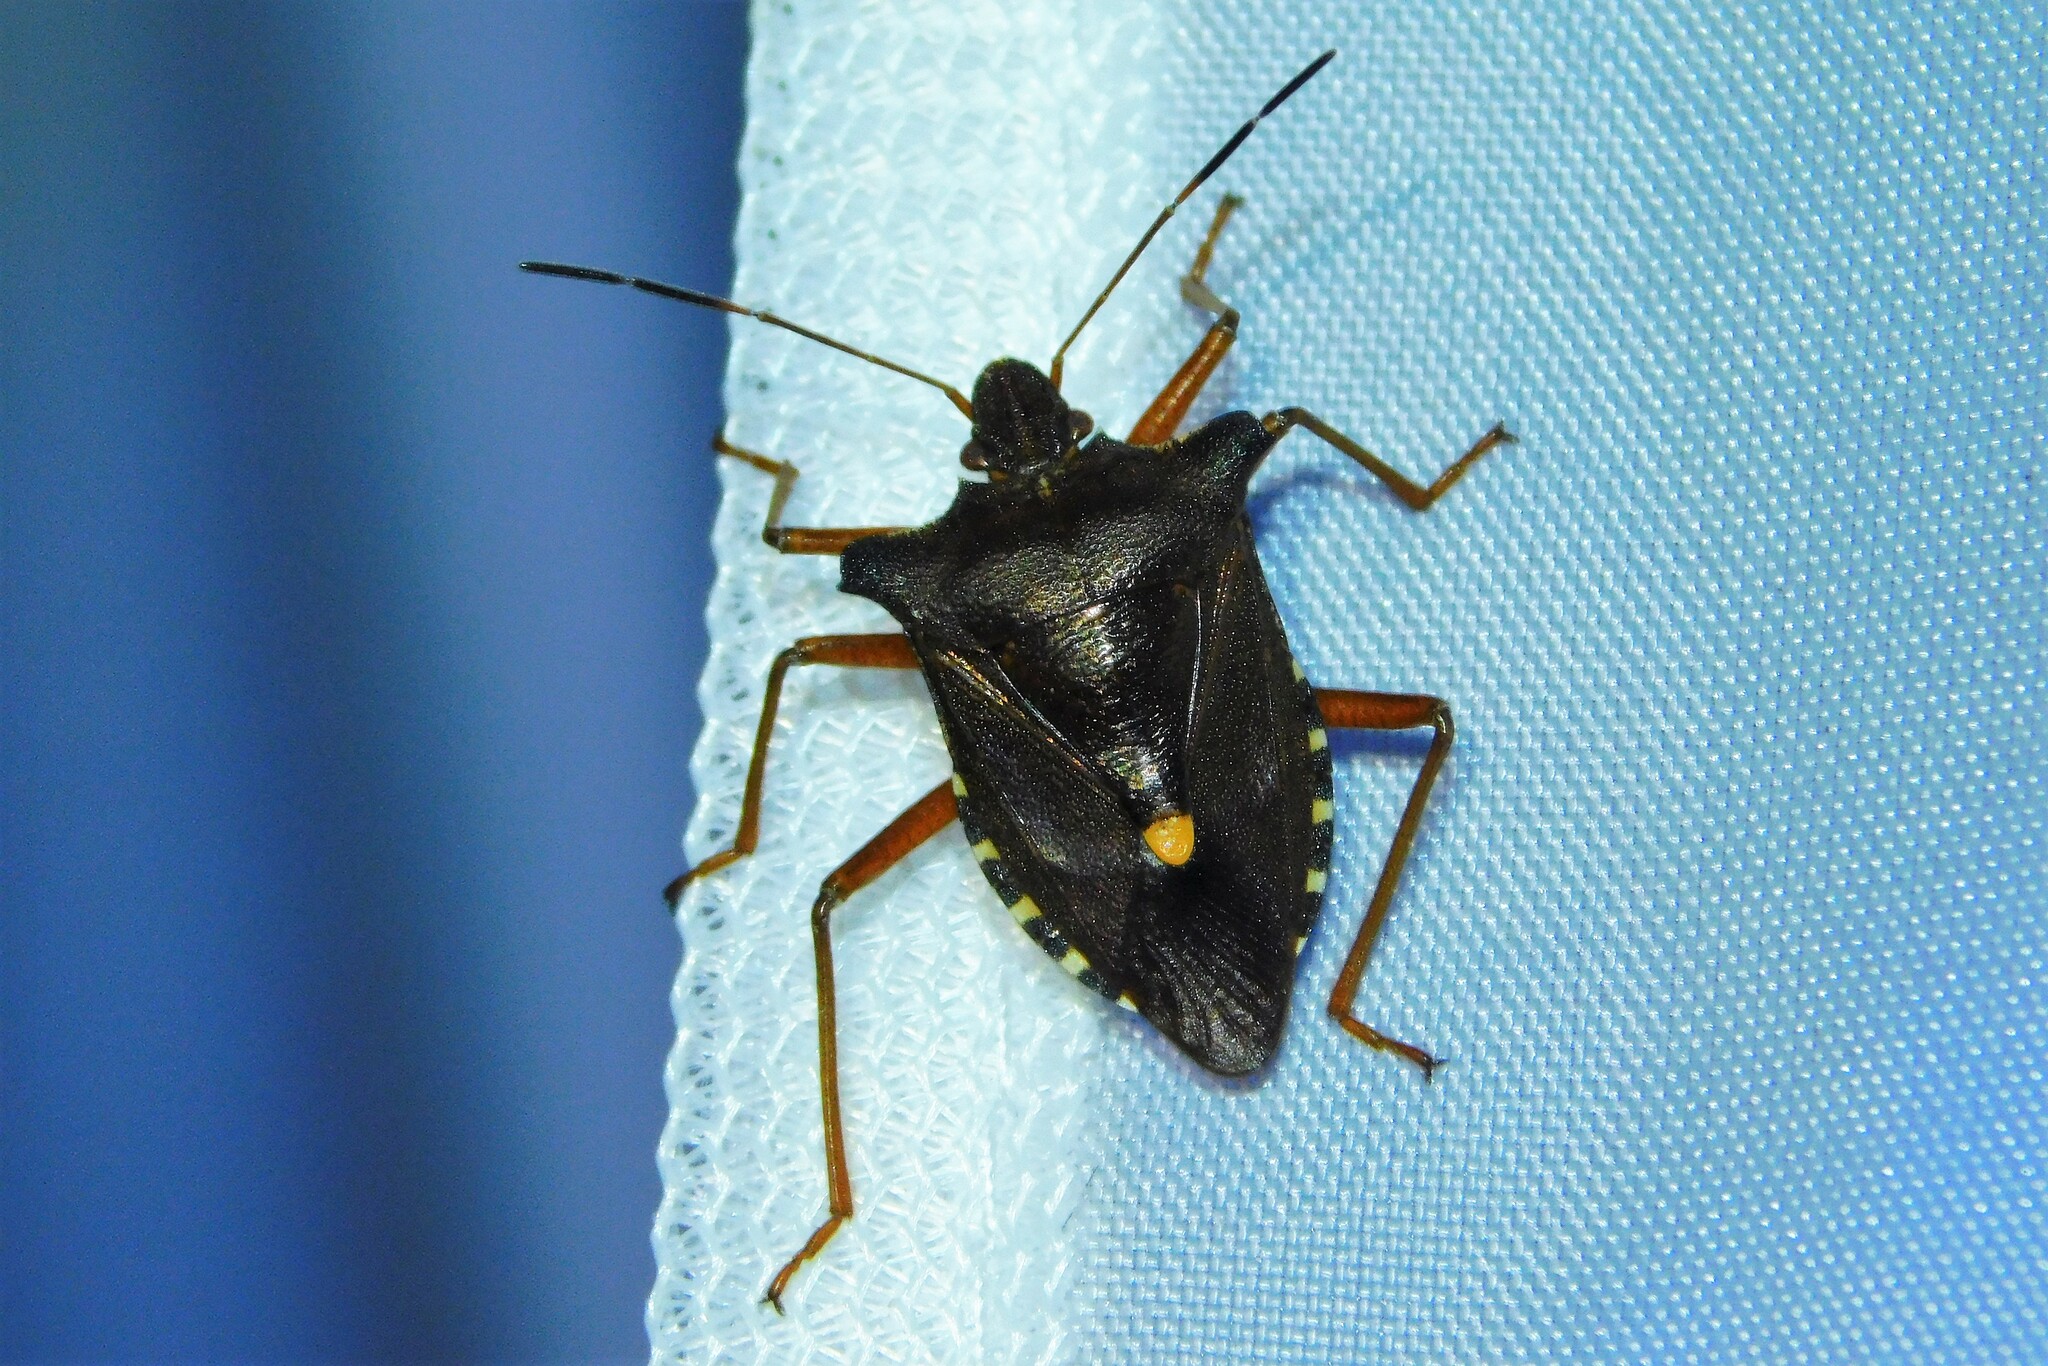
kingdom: Animalia
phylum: Arthropoda
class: Insecta
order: Hemiptera
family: Pentatomidae
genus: Pentatoma
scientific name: Pentatoma rufipes
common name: Forest bug
